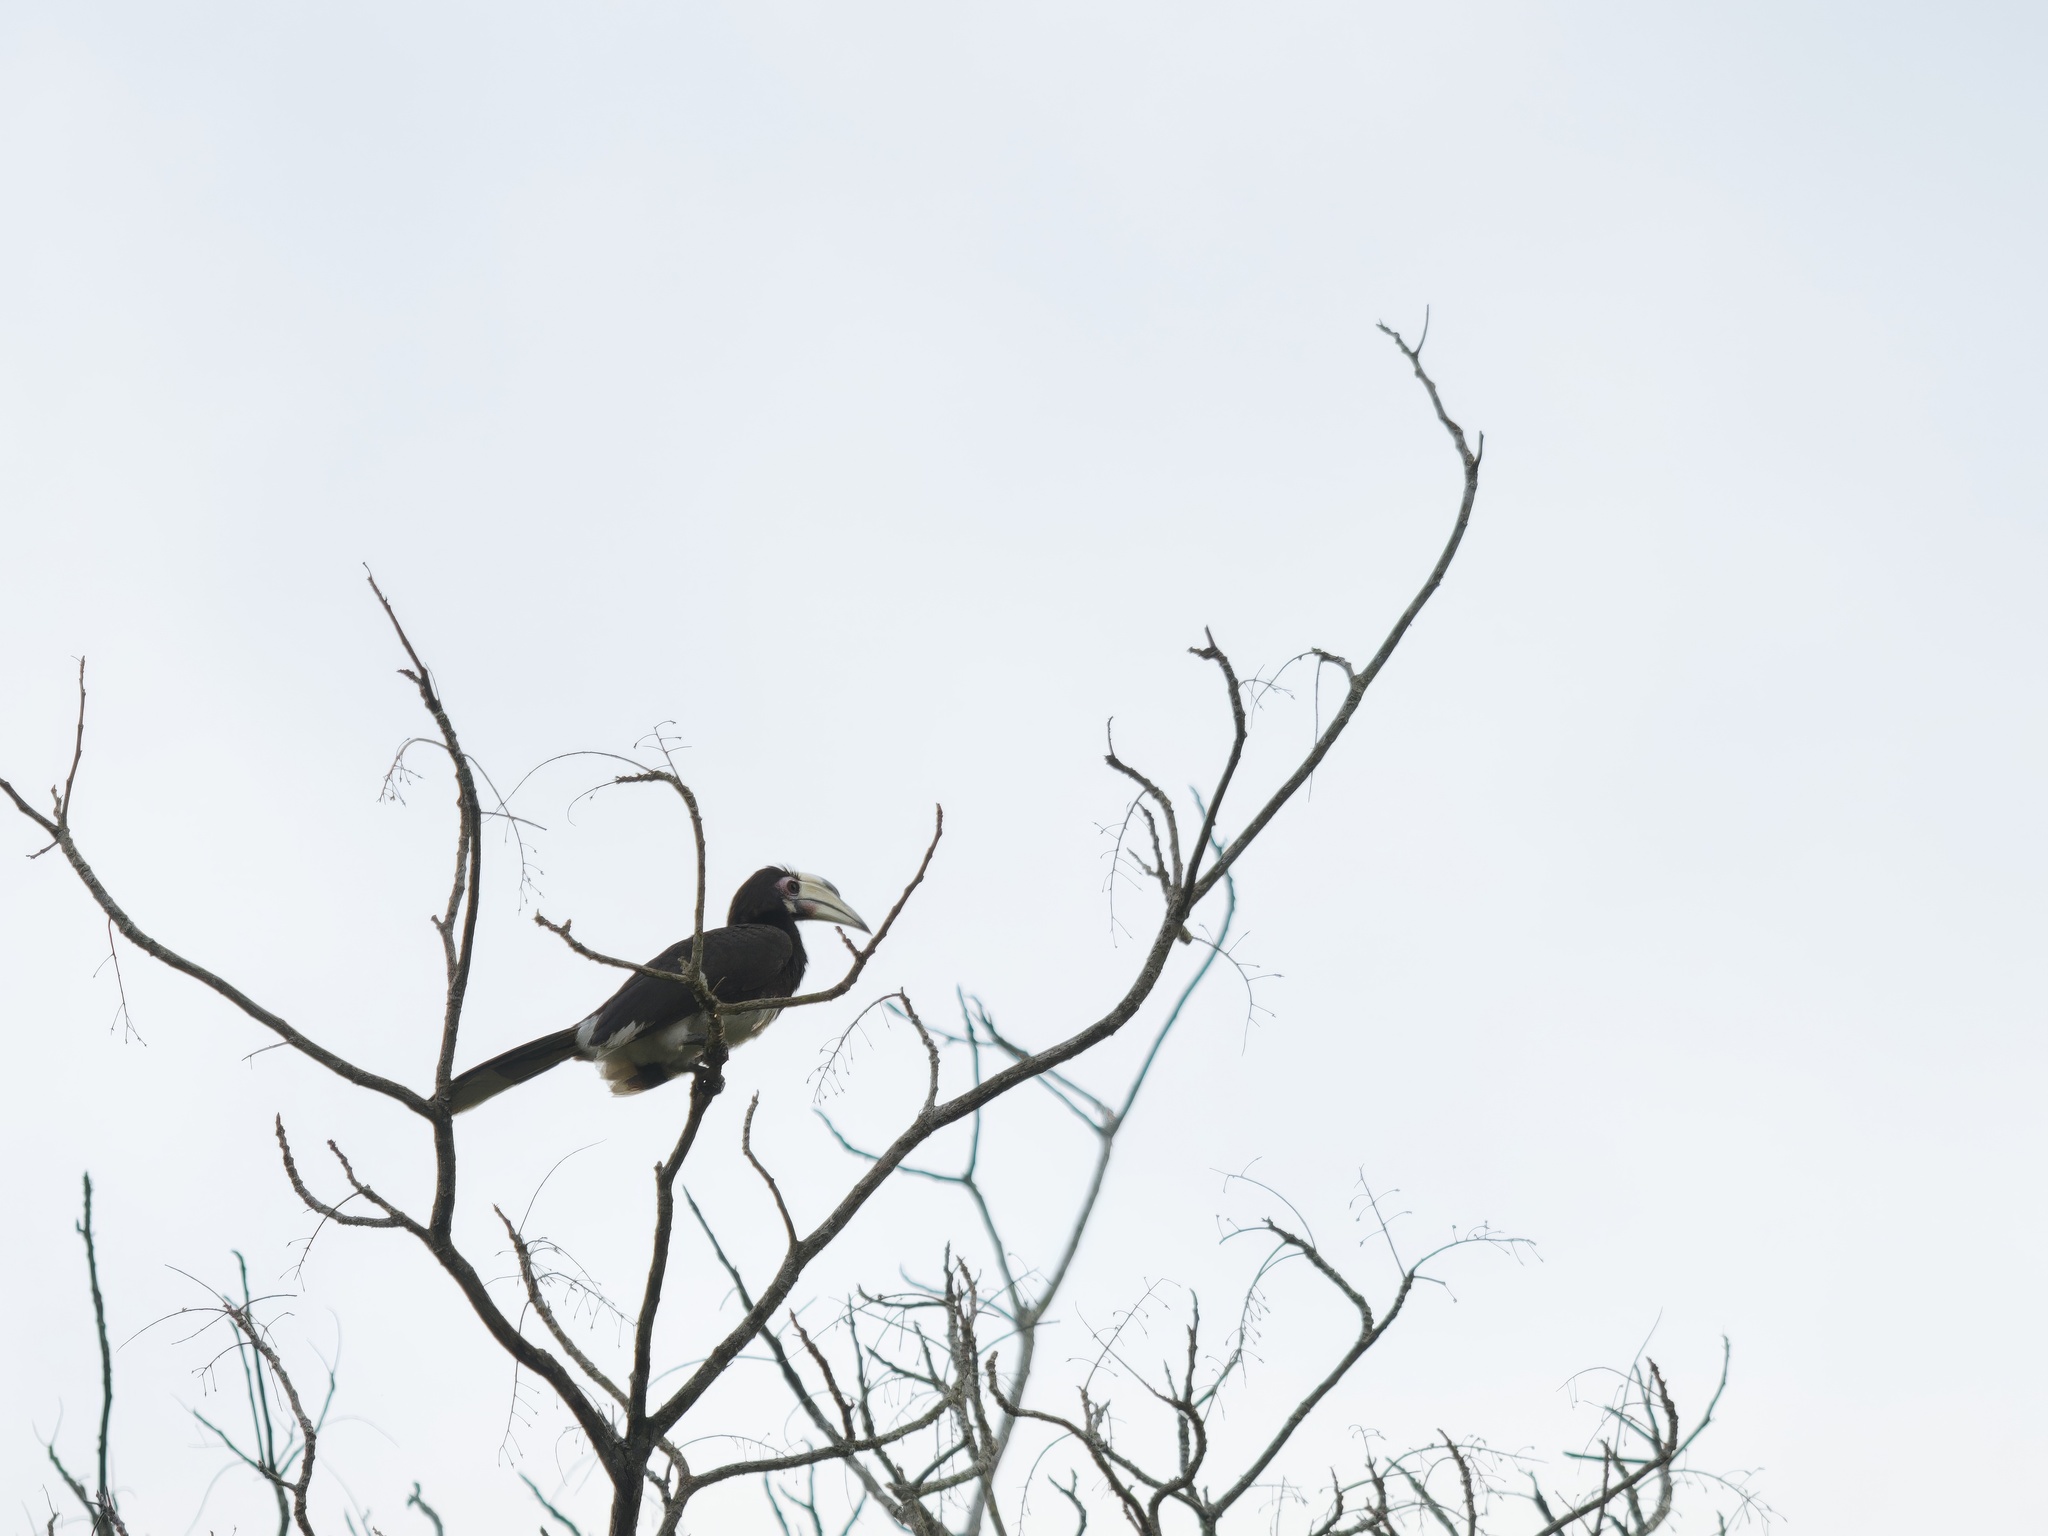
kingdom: Animalia
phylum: Chordata
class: Aves
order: Bucerotiformes
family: Bucerotidae
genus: Anthracoceros
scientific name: Anthracoceros albirostris
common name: Oriental pied-hornbill
